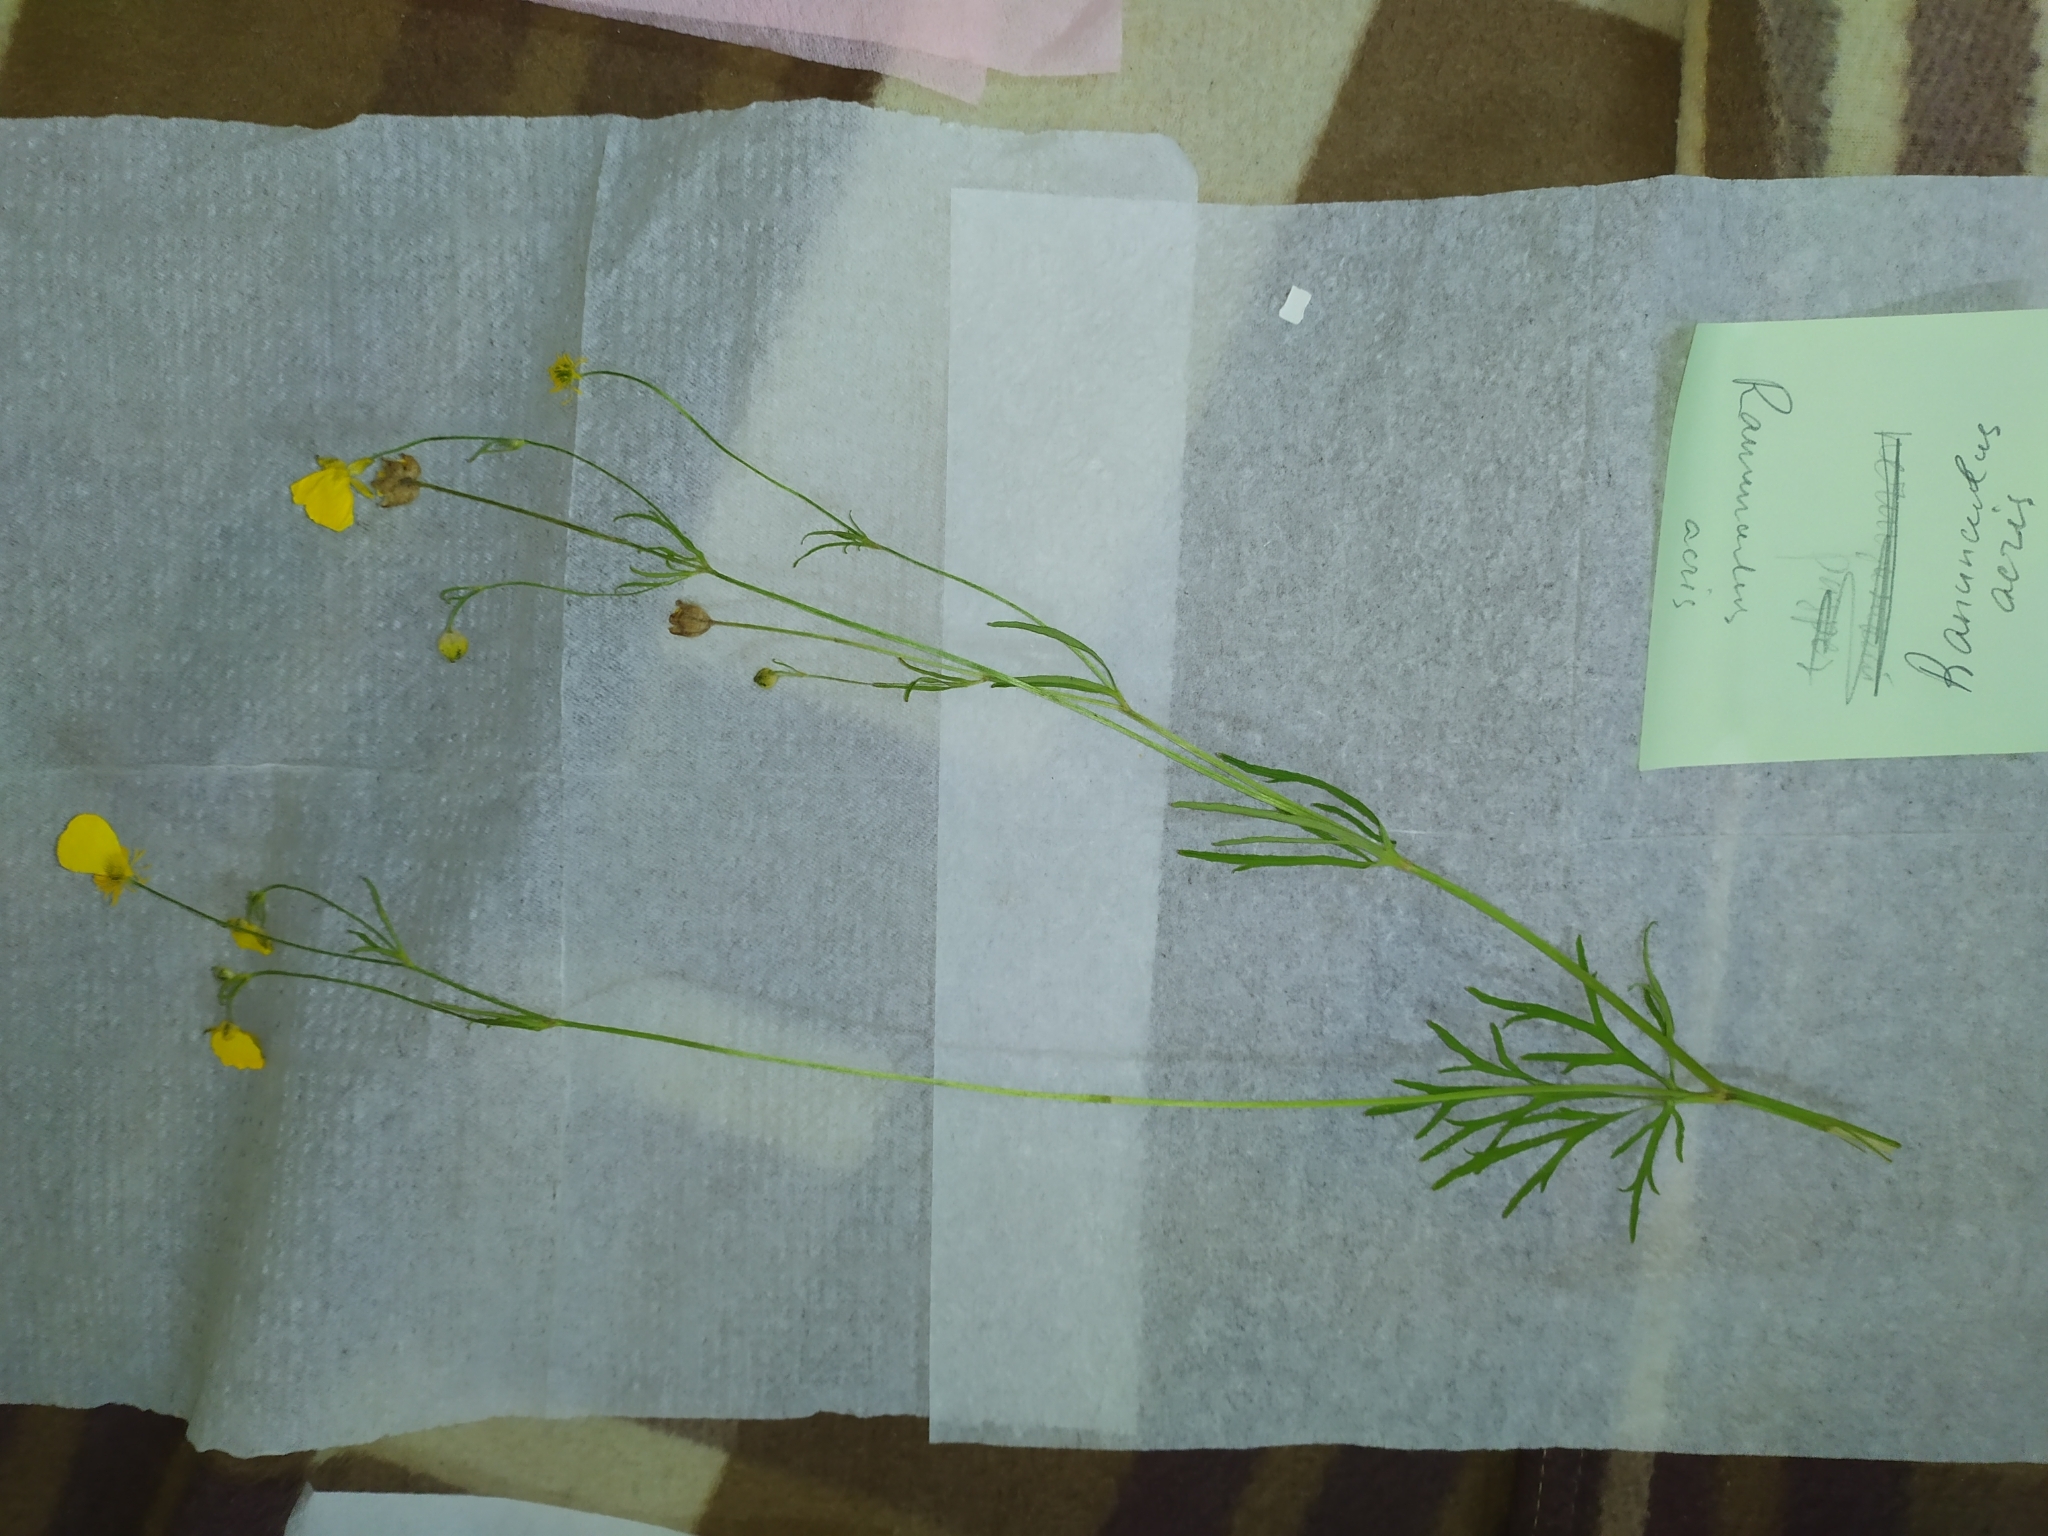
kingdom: Plantae
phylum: Tracheophyta
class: Magnoliopsida
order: Ranunculales
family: Ranunculaceae
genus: Ranunculus
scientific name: Ranunculus polyanthemos
